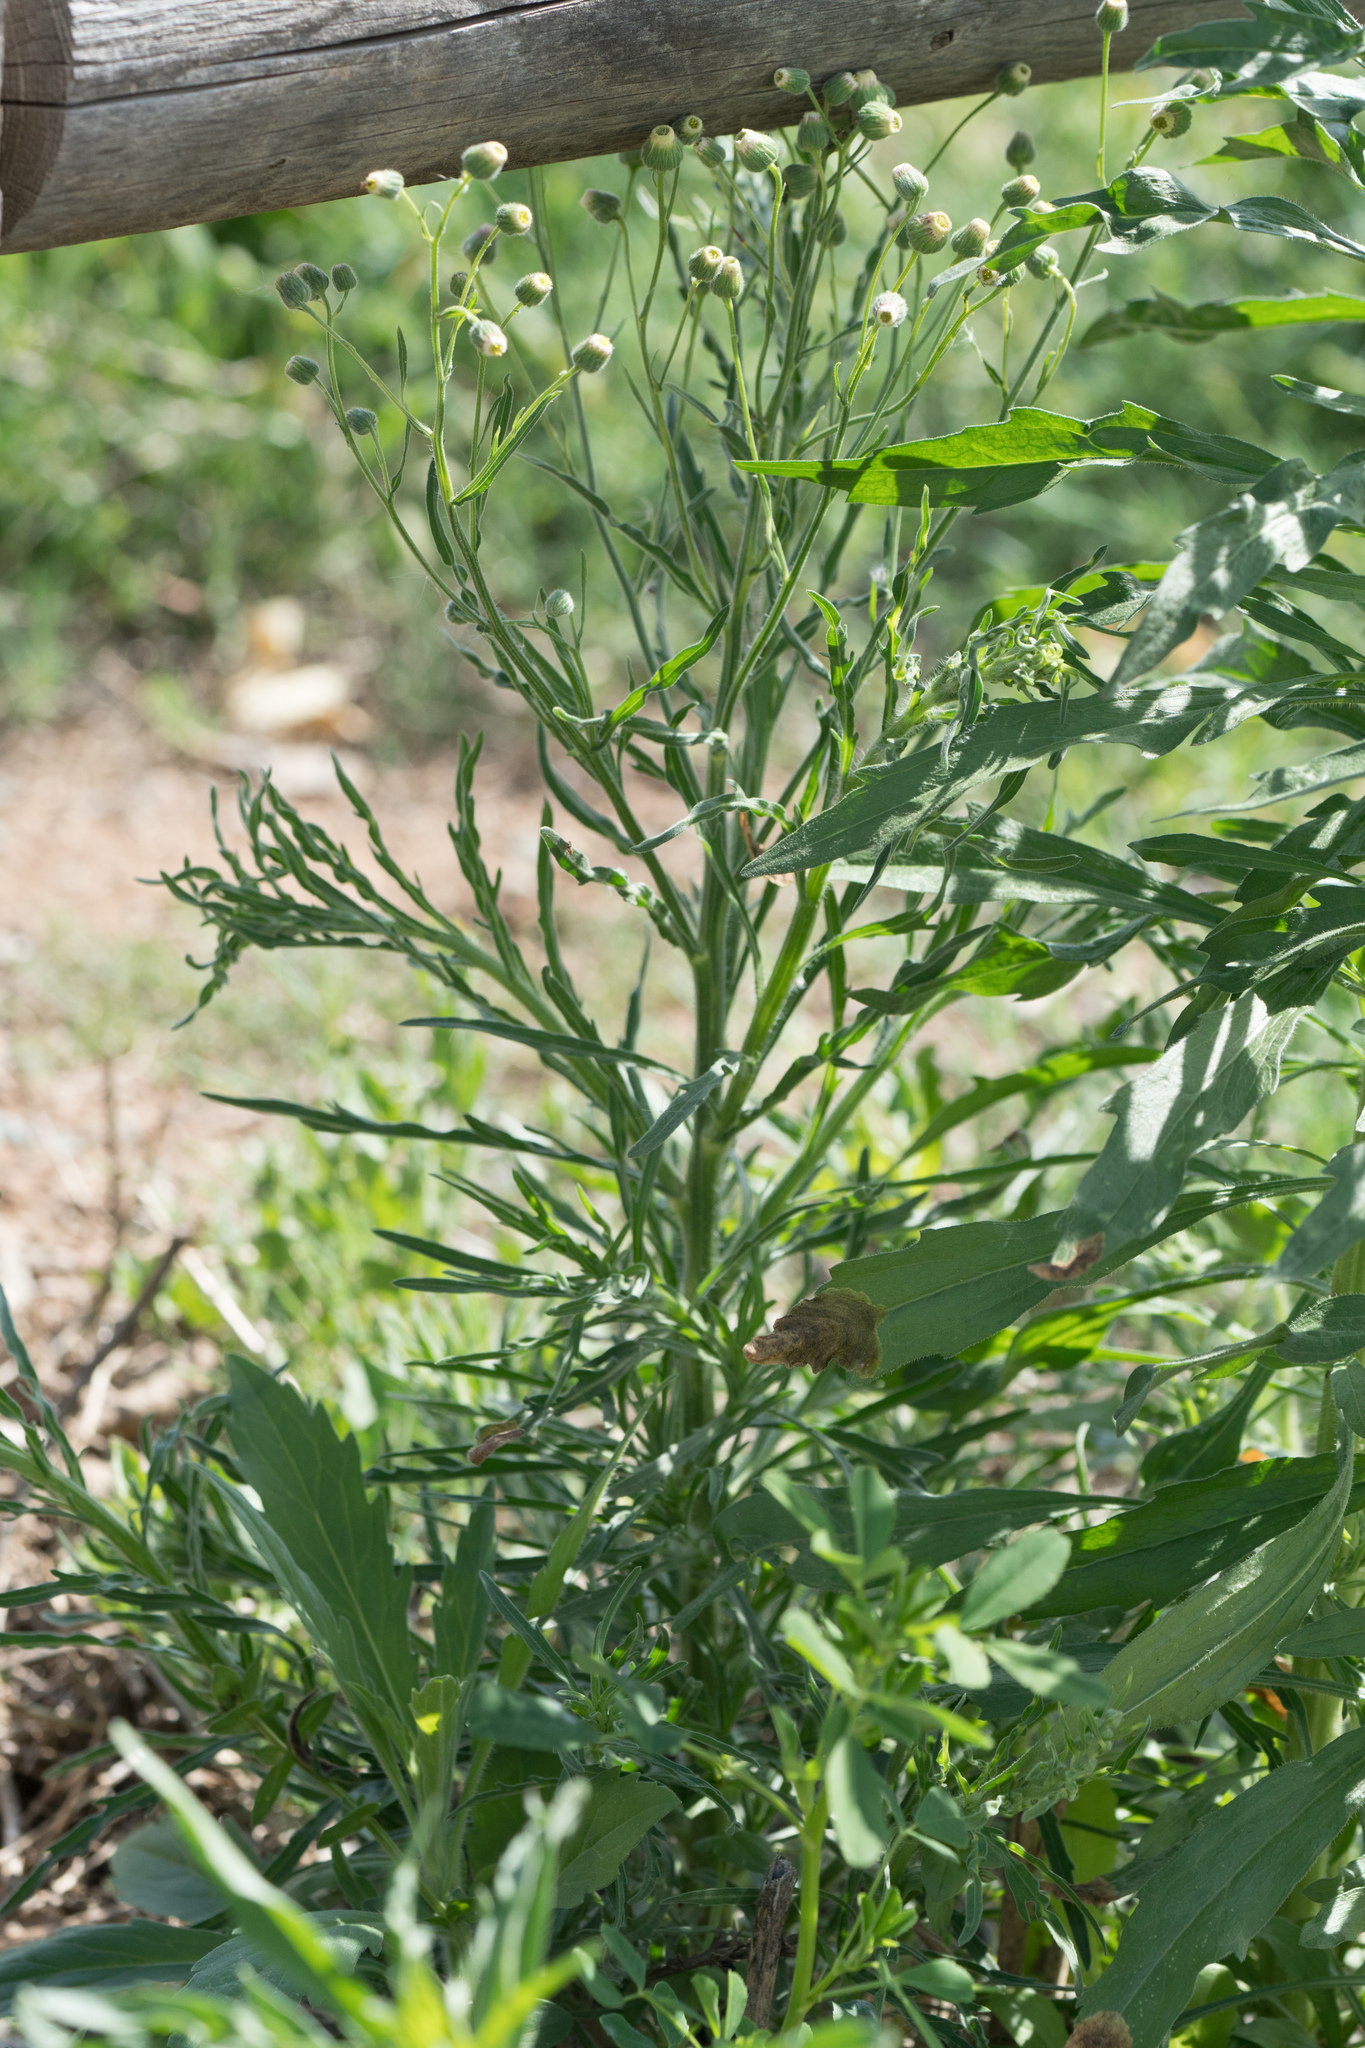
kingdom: Plantae
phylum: Tracheophyta
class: Magnoliopsida
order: Asterales
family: Asteraceae
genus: Erigeron
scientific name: Erigeron bonariensis
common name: Argentine fleabane
